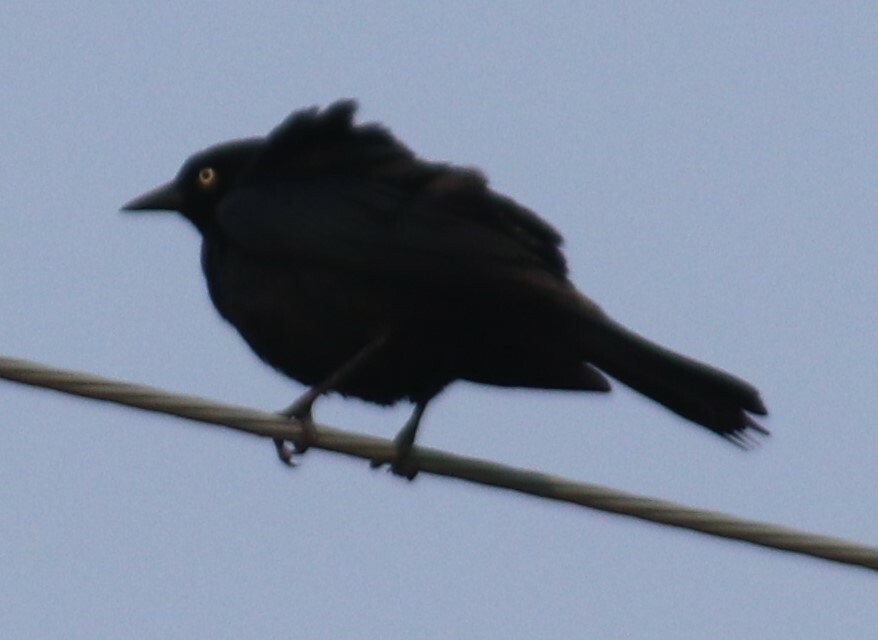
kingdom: Animalia
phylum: Chordata
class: Aves
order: Passeriformes
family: Icteridae
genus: Euphagus
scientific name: Euphagus cyanocephalus
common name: Brewer's blackbird
